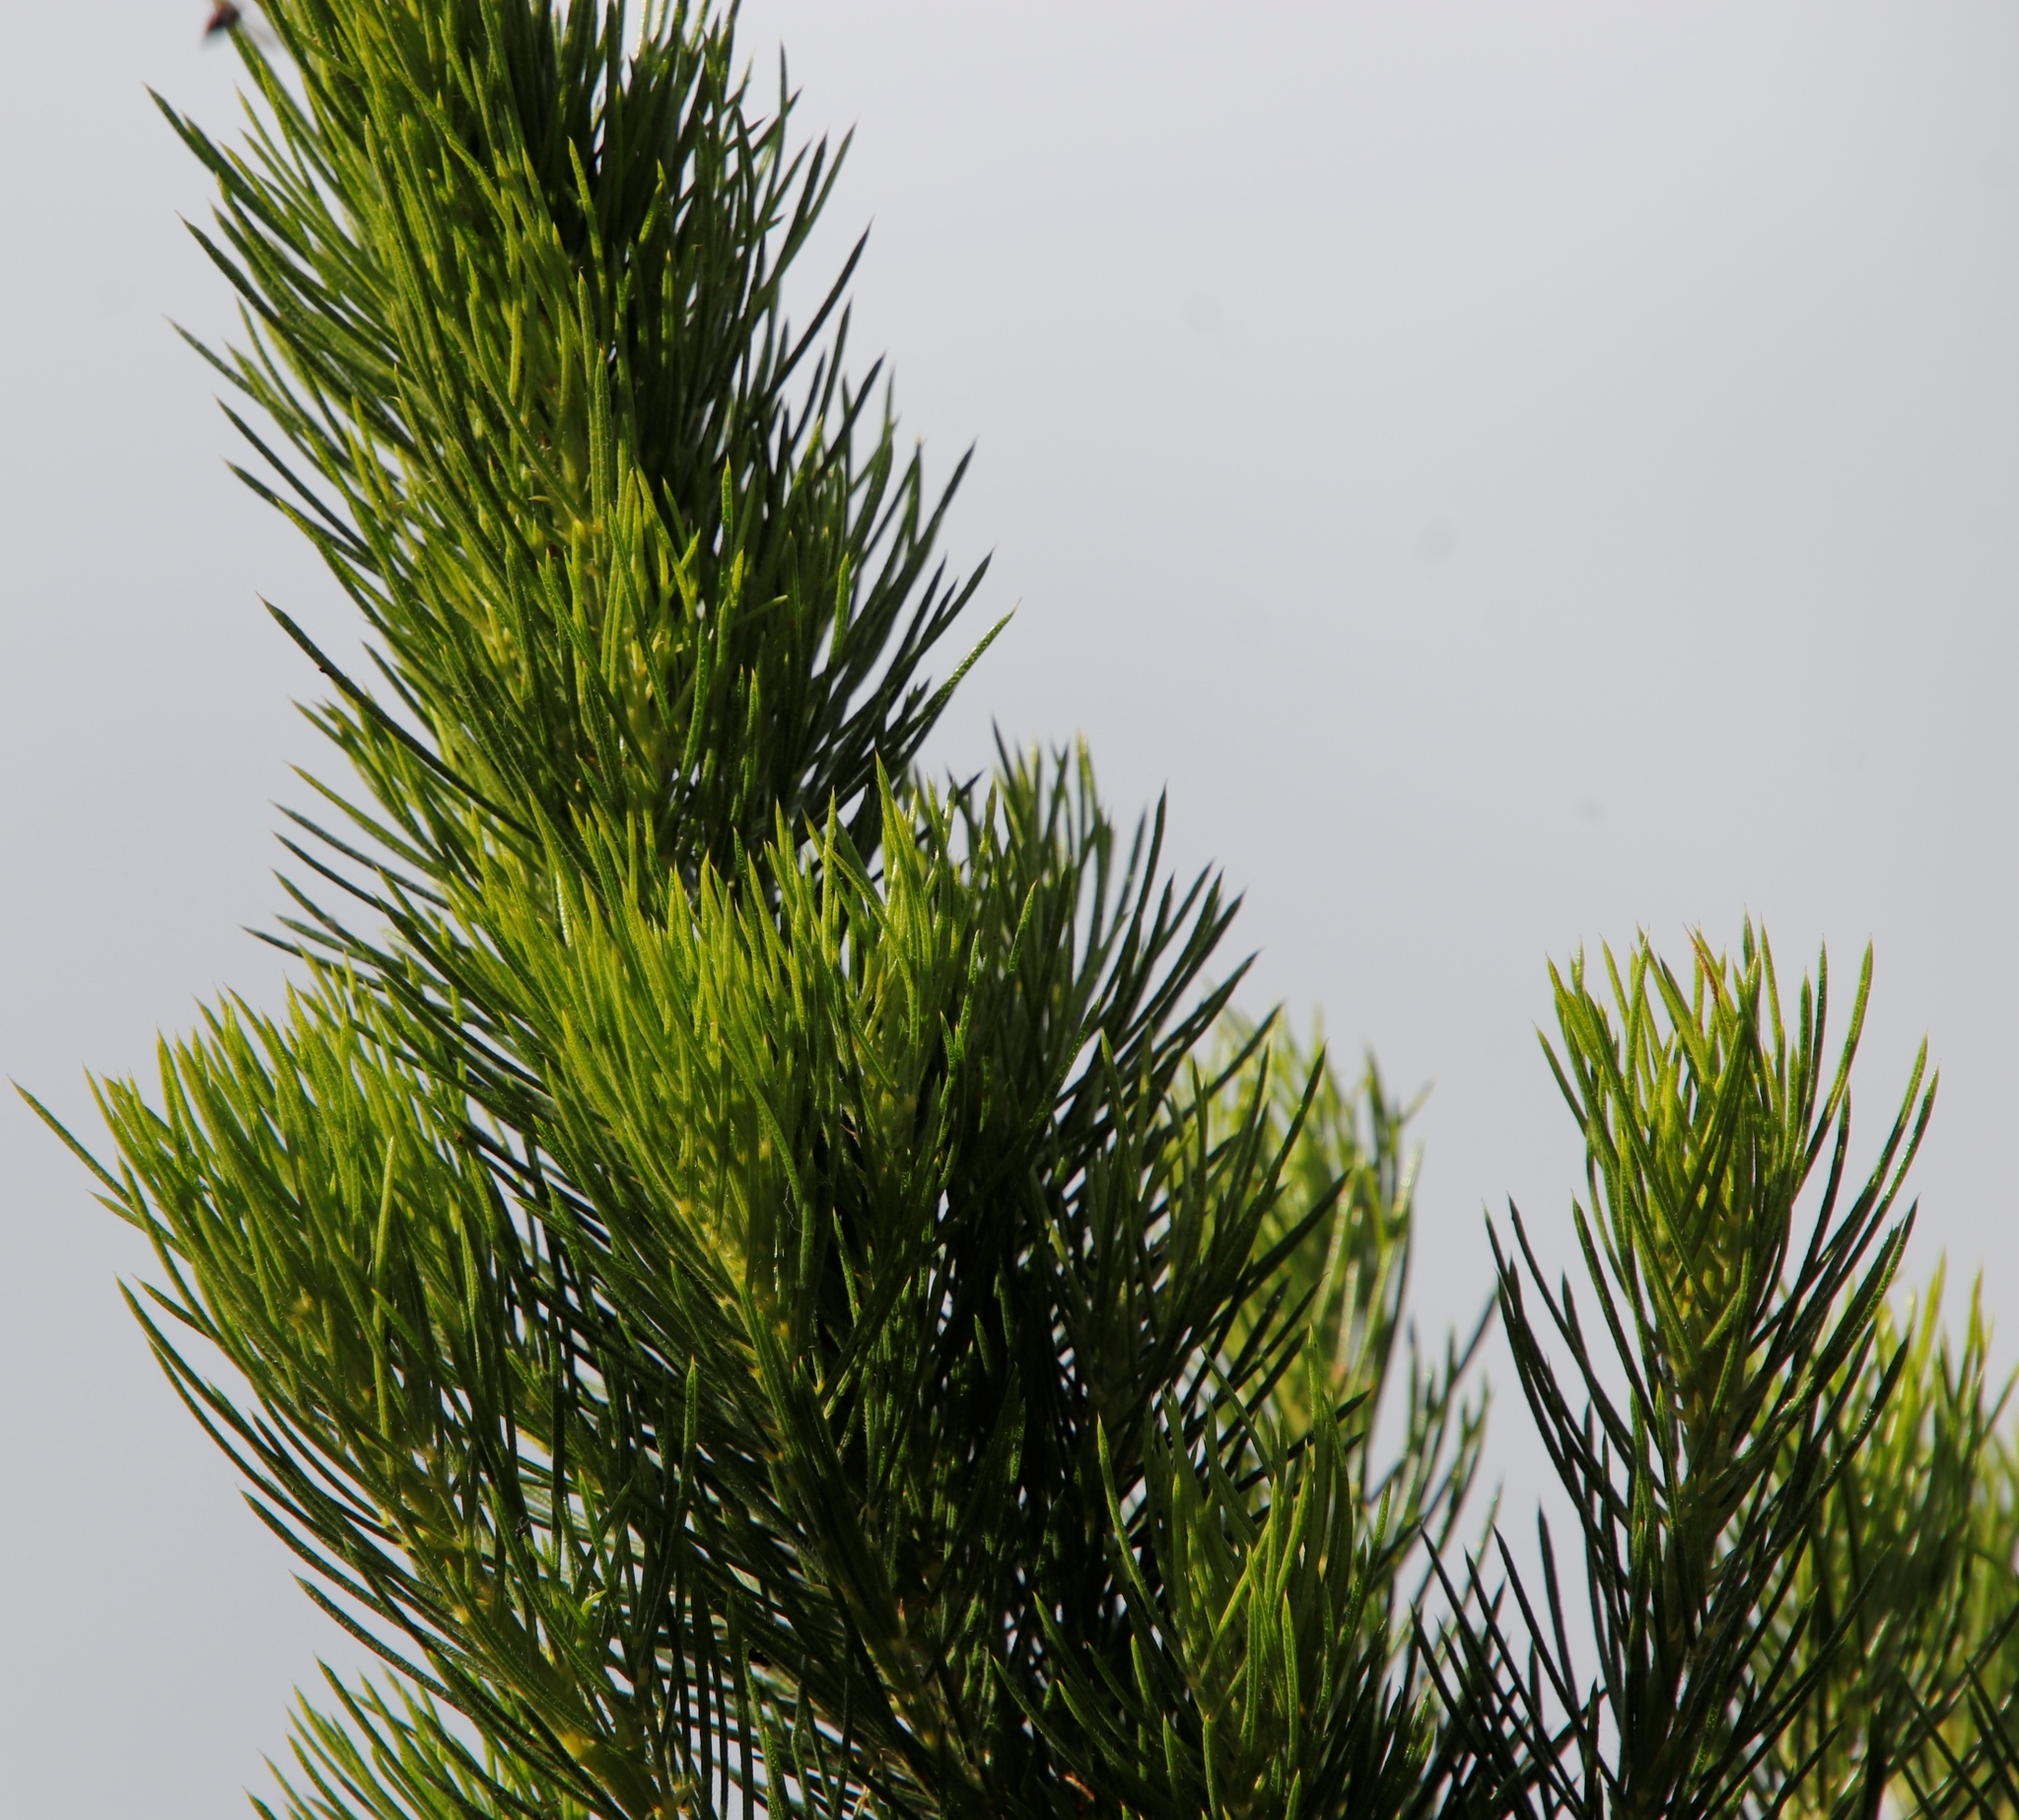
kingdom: Plantae
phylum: Tracheophyta
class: Magnoliopsida
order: Myrtales
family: Myrtaceae
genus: Melaleuca
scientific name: Melaleuca armillaris
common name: Bracelet honey myrtle
